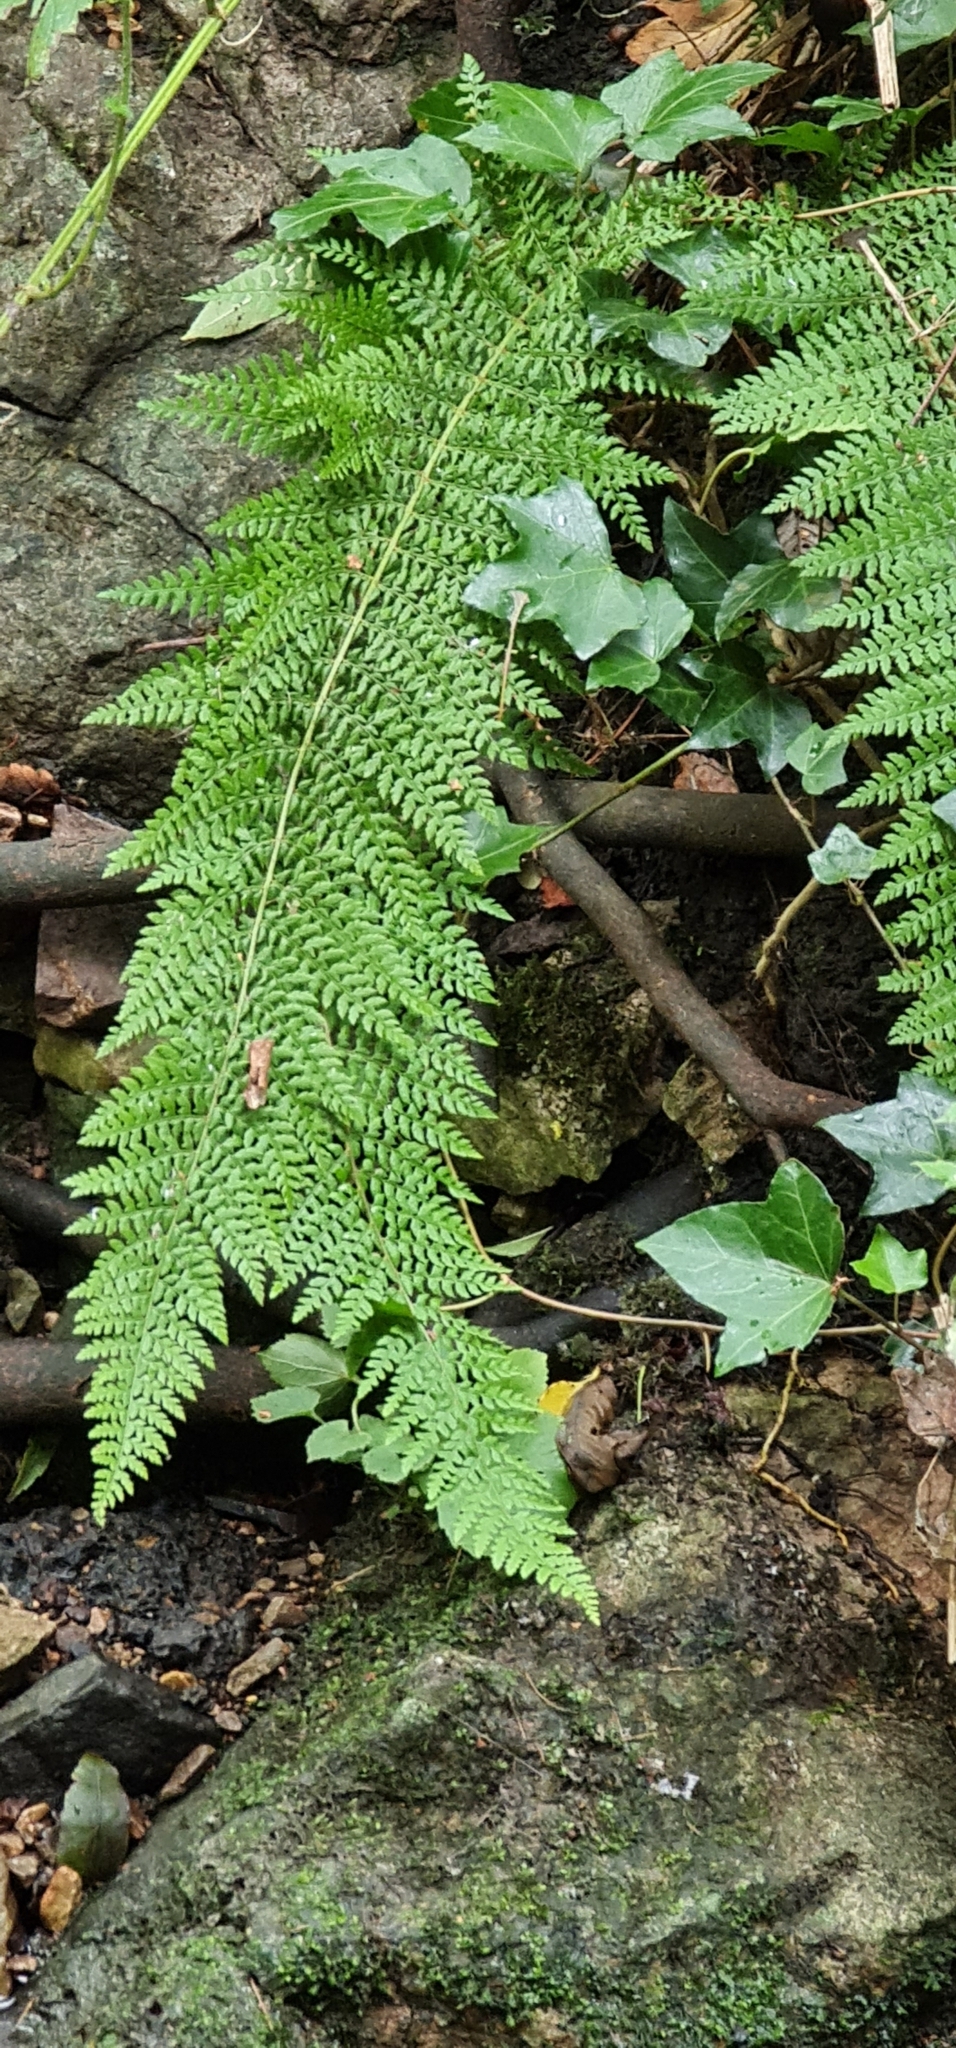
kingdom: Plantae
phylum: Tracheophyta
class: Polypodiopsida
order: Polypodiales
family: Dryopteridaceae
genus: Polystichum
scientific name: Polystichum setiferum
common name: Soft shield-fern
